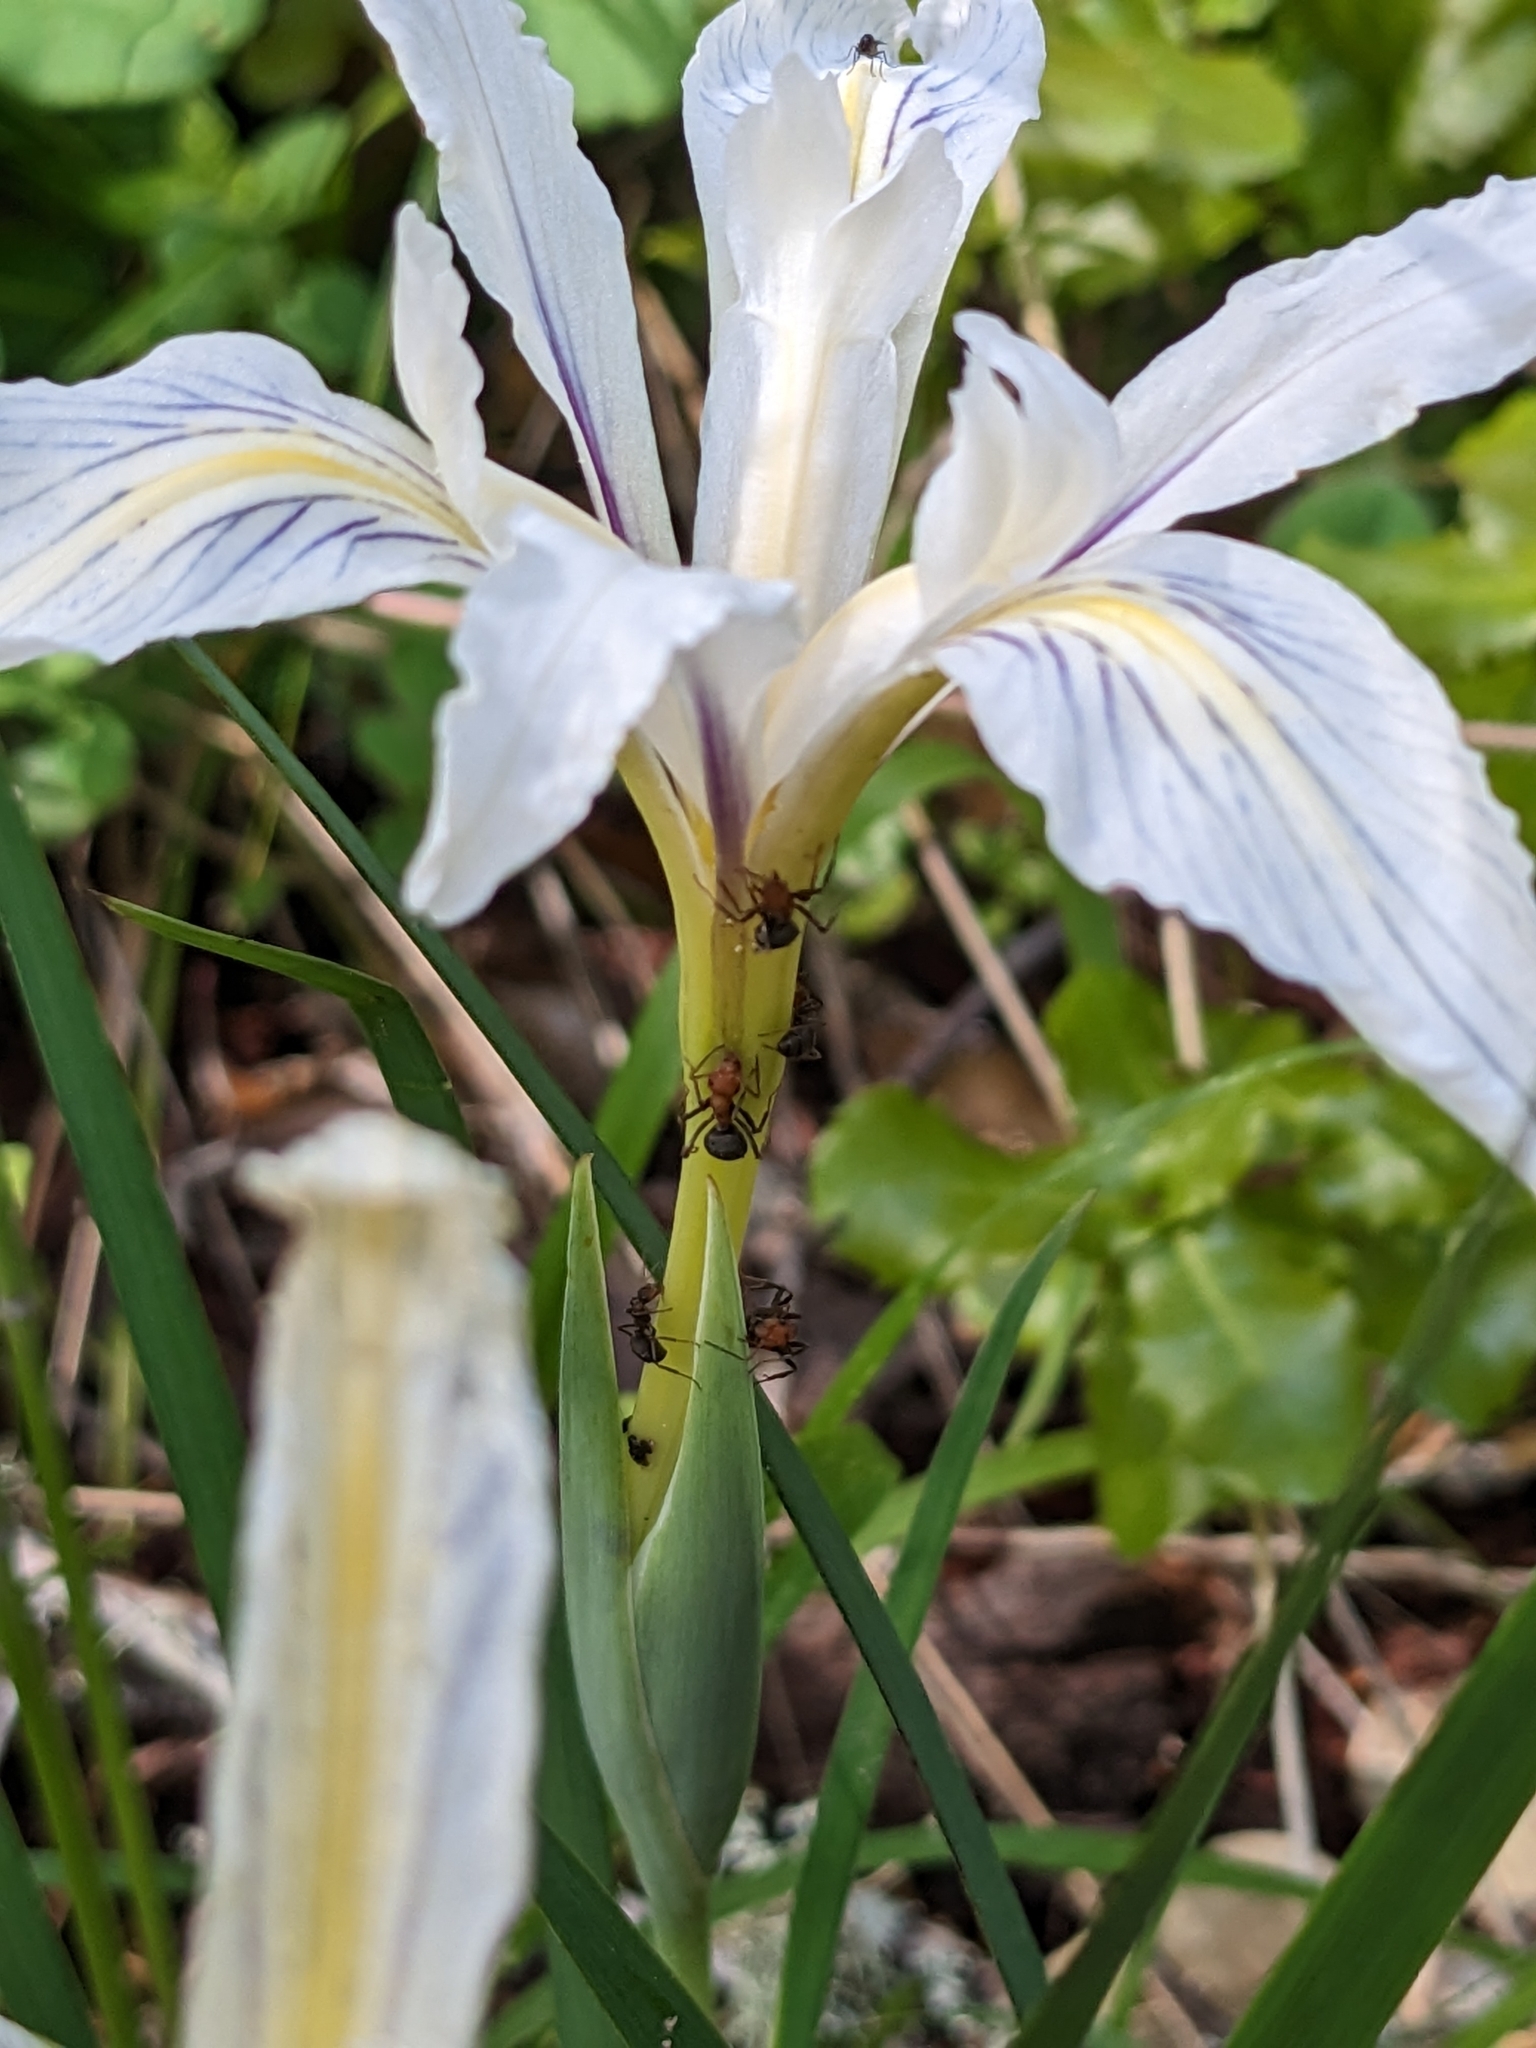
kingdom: Plantae
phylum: Tracheophyta
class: Liliopsida
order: Asparagales
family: Iridaceae
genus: Iris
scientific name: Iris fernaldii
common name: Fernald's iris
